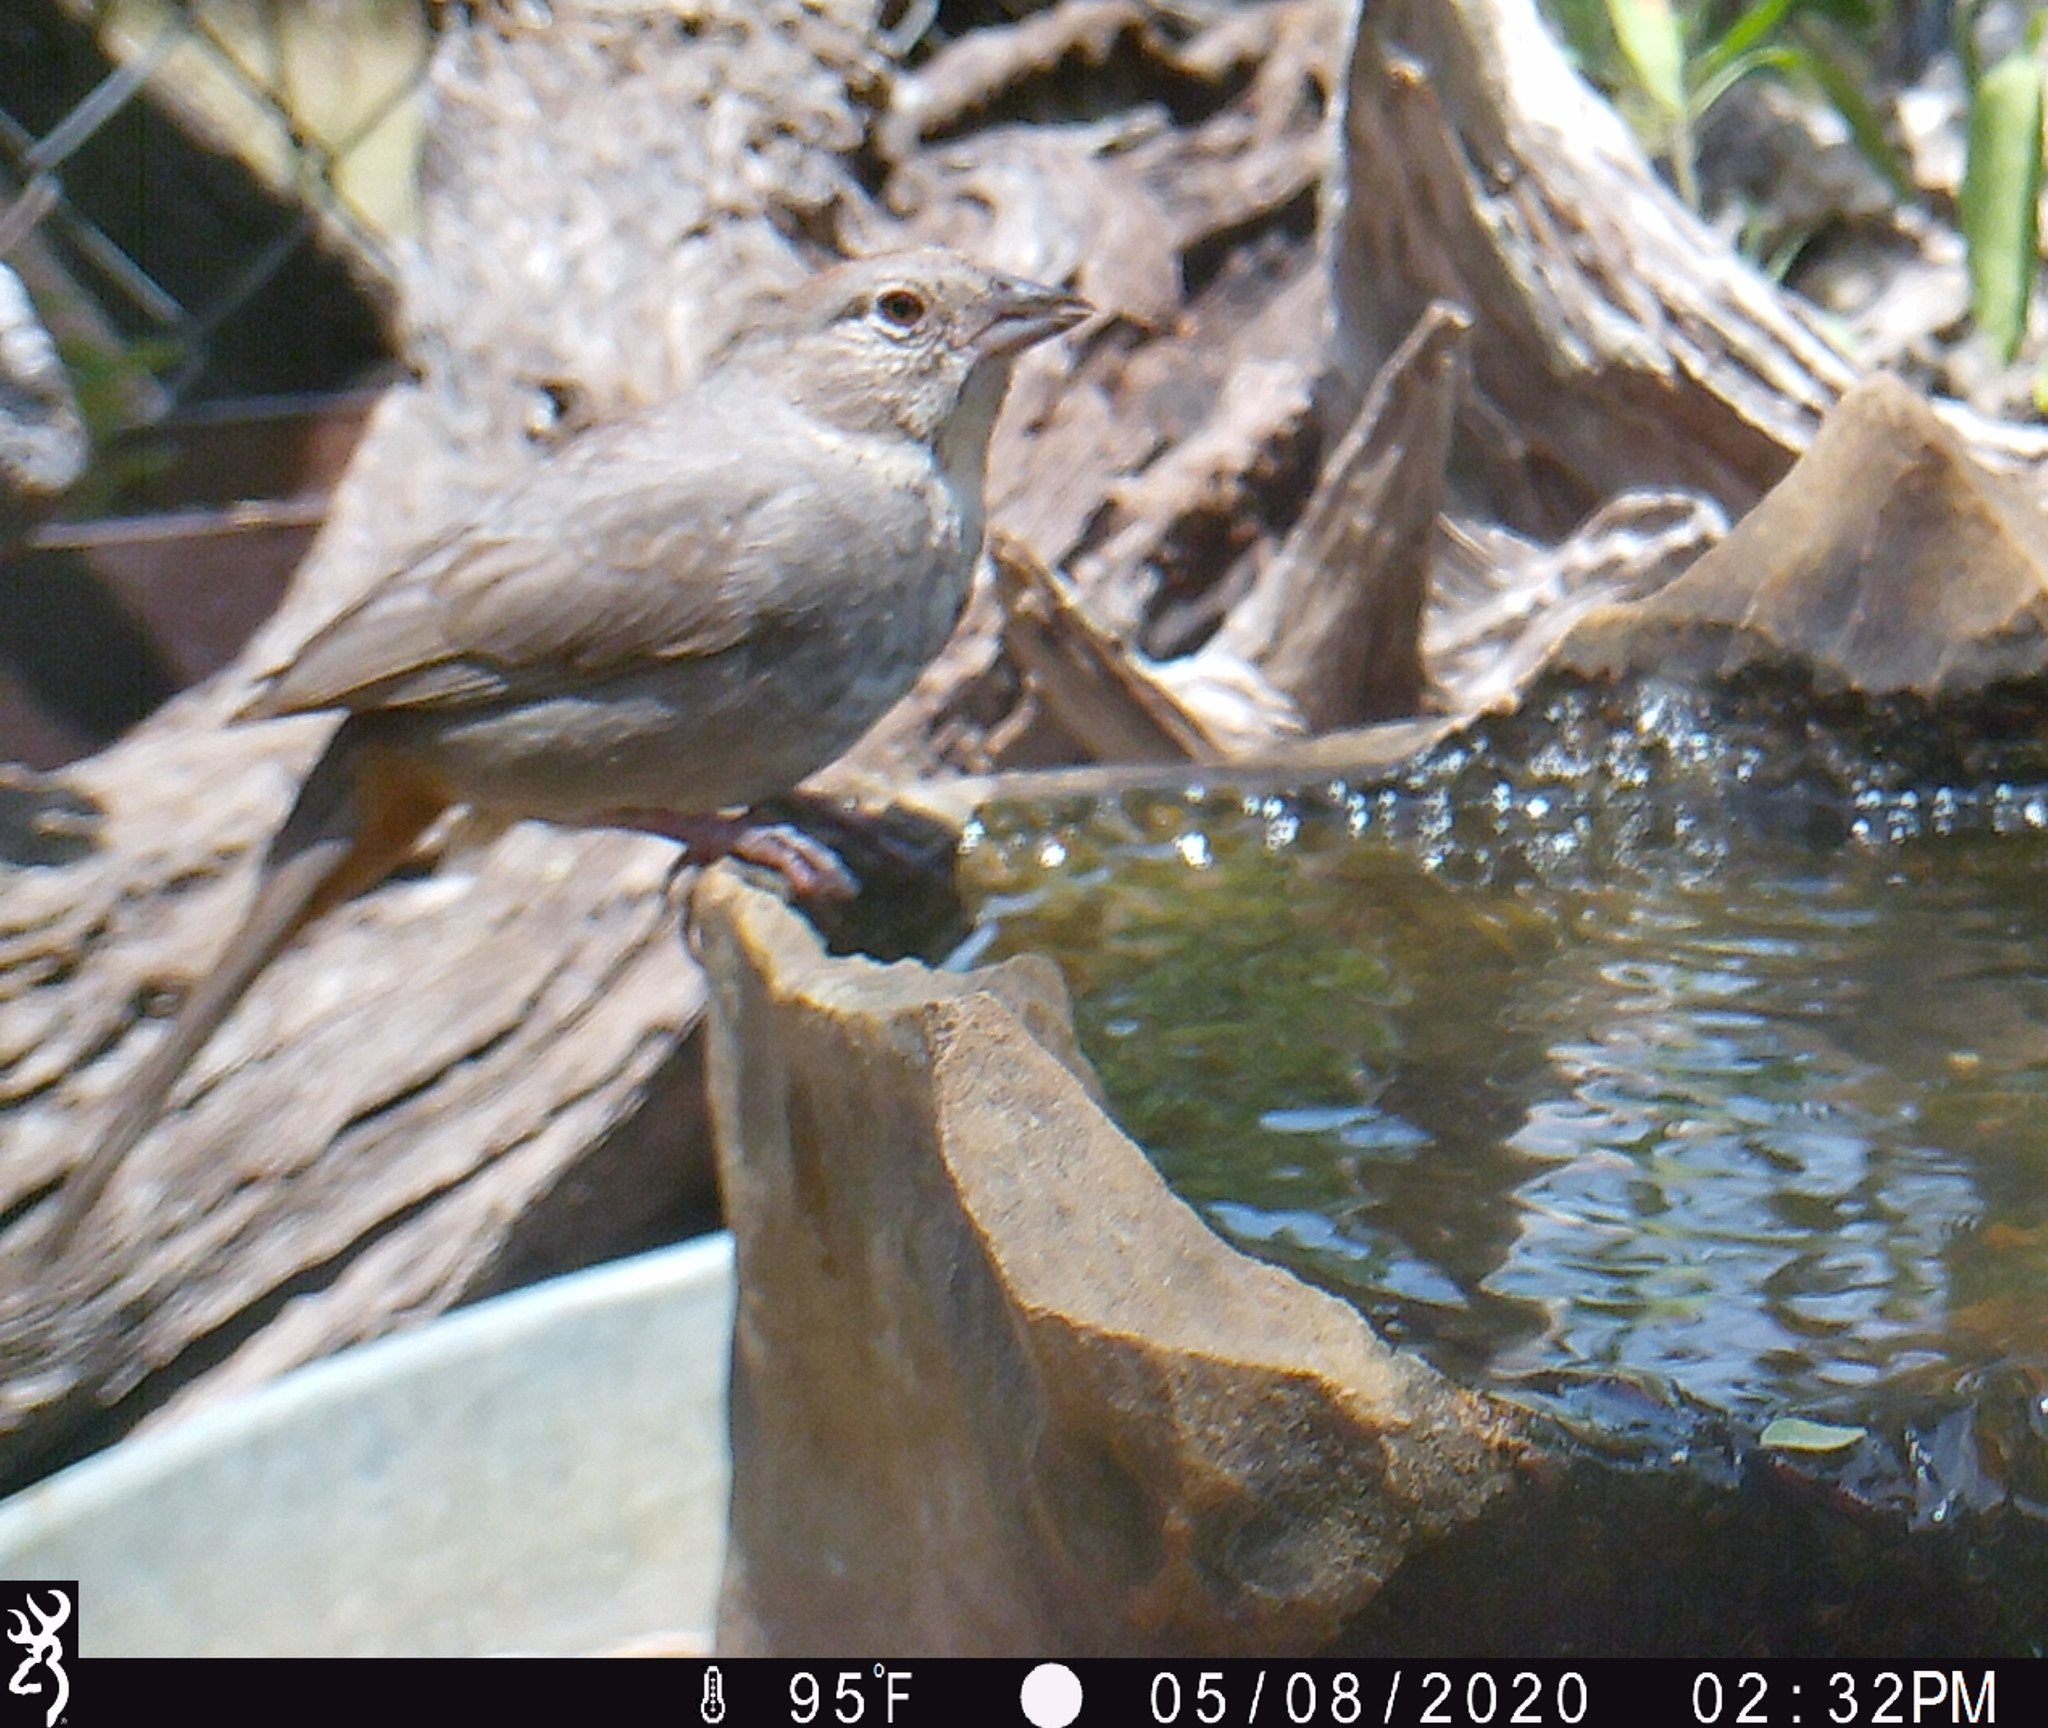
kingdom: Animalia
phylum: Chordata
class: Aves
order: Passeriformes
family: Passerellidae
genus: Melozone
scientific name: Melozone fusca
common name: Canyon towhee
